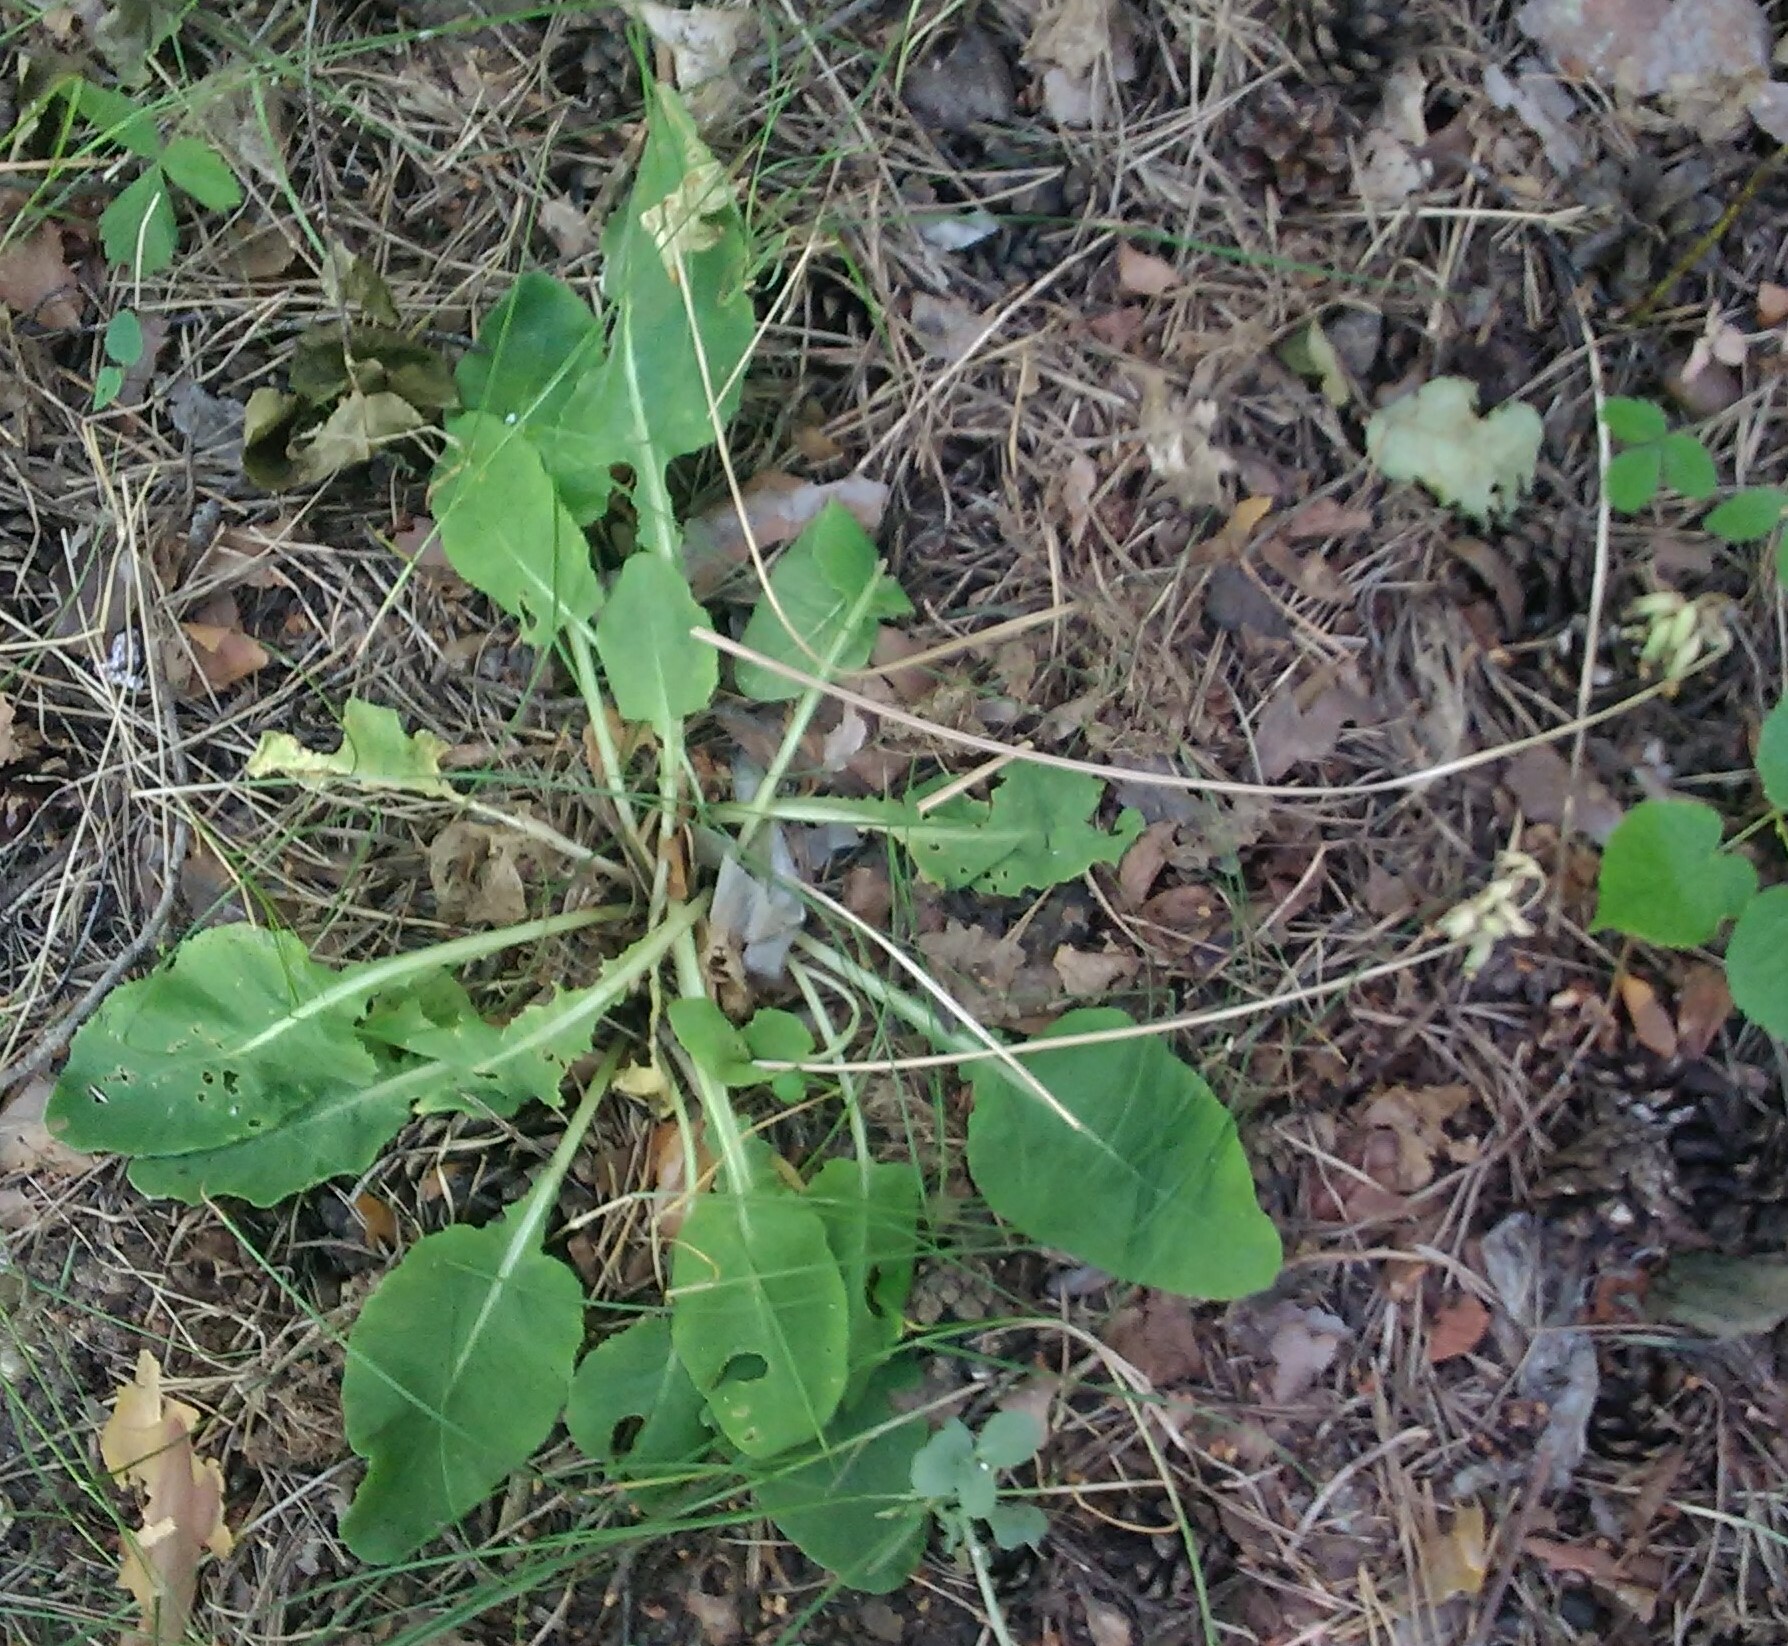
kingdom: Plantae
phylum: Tracheophyta
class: Magnoliopsida
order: Ericales
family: Primulaceae
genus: Primula
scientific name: Primula veris
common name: Cowslip
